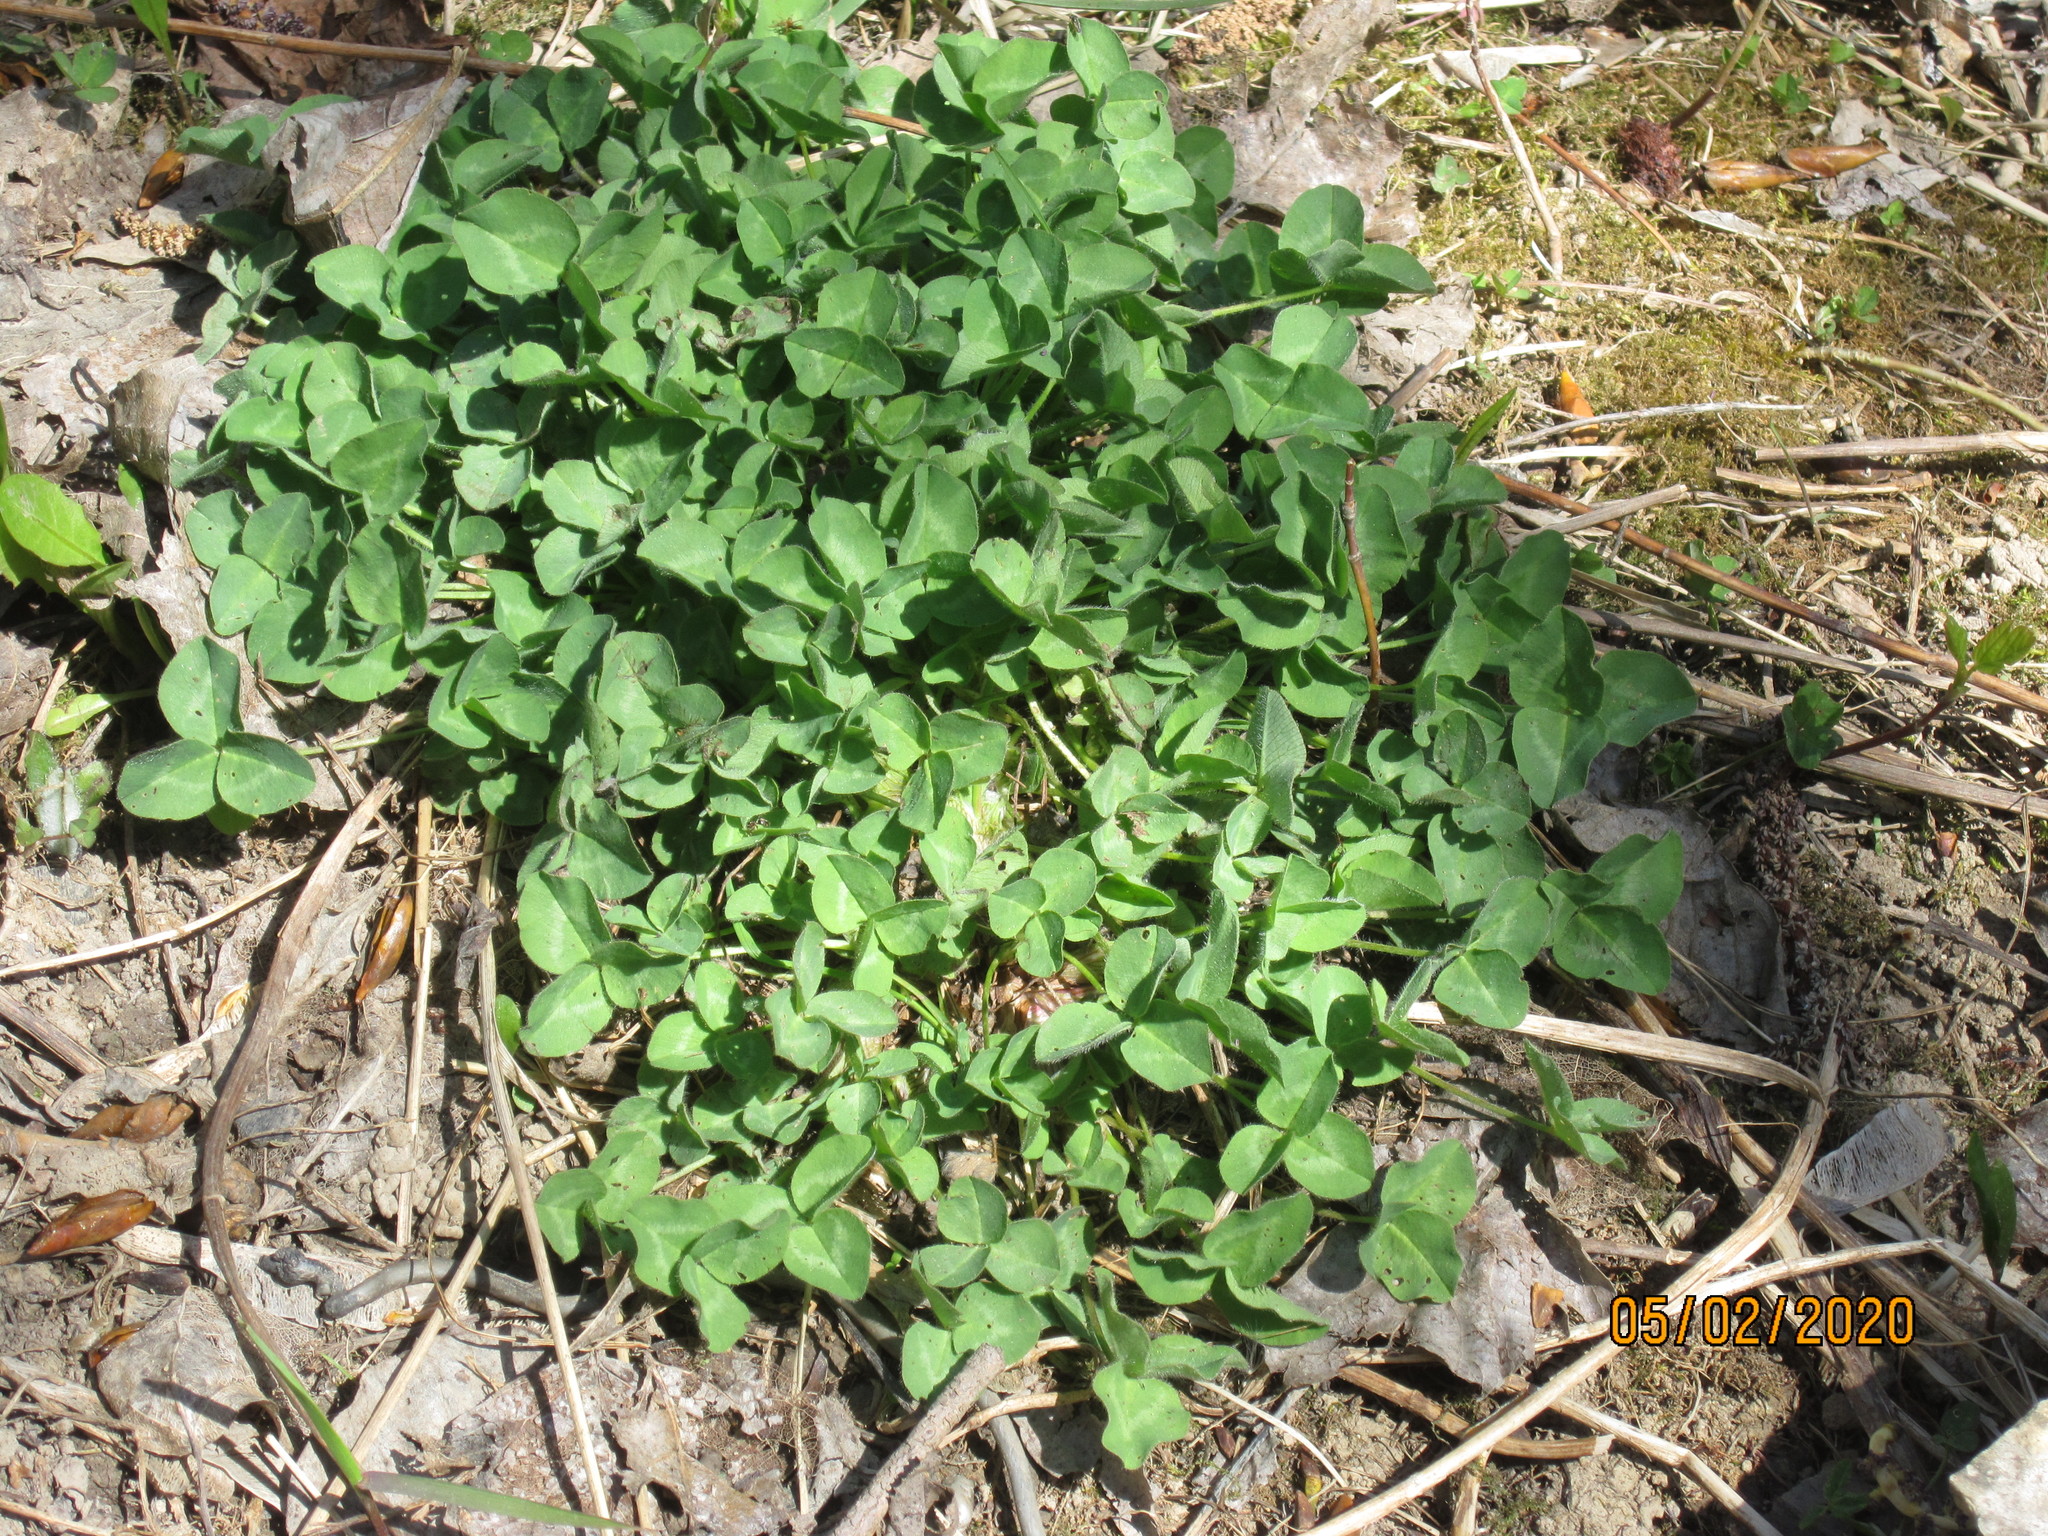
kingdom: Plantae
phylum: Tracheophyta
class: Magnoliopsida
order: Fabales
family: Fabaceae
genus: Trifolium
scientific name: Trifolium repens
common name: White clover
